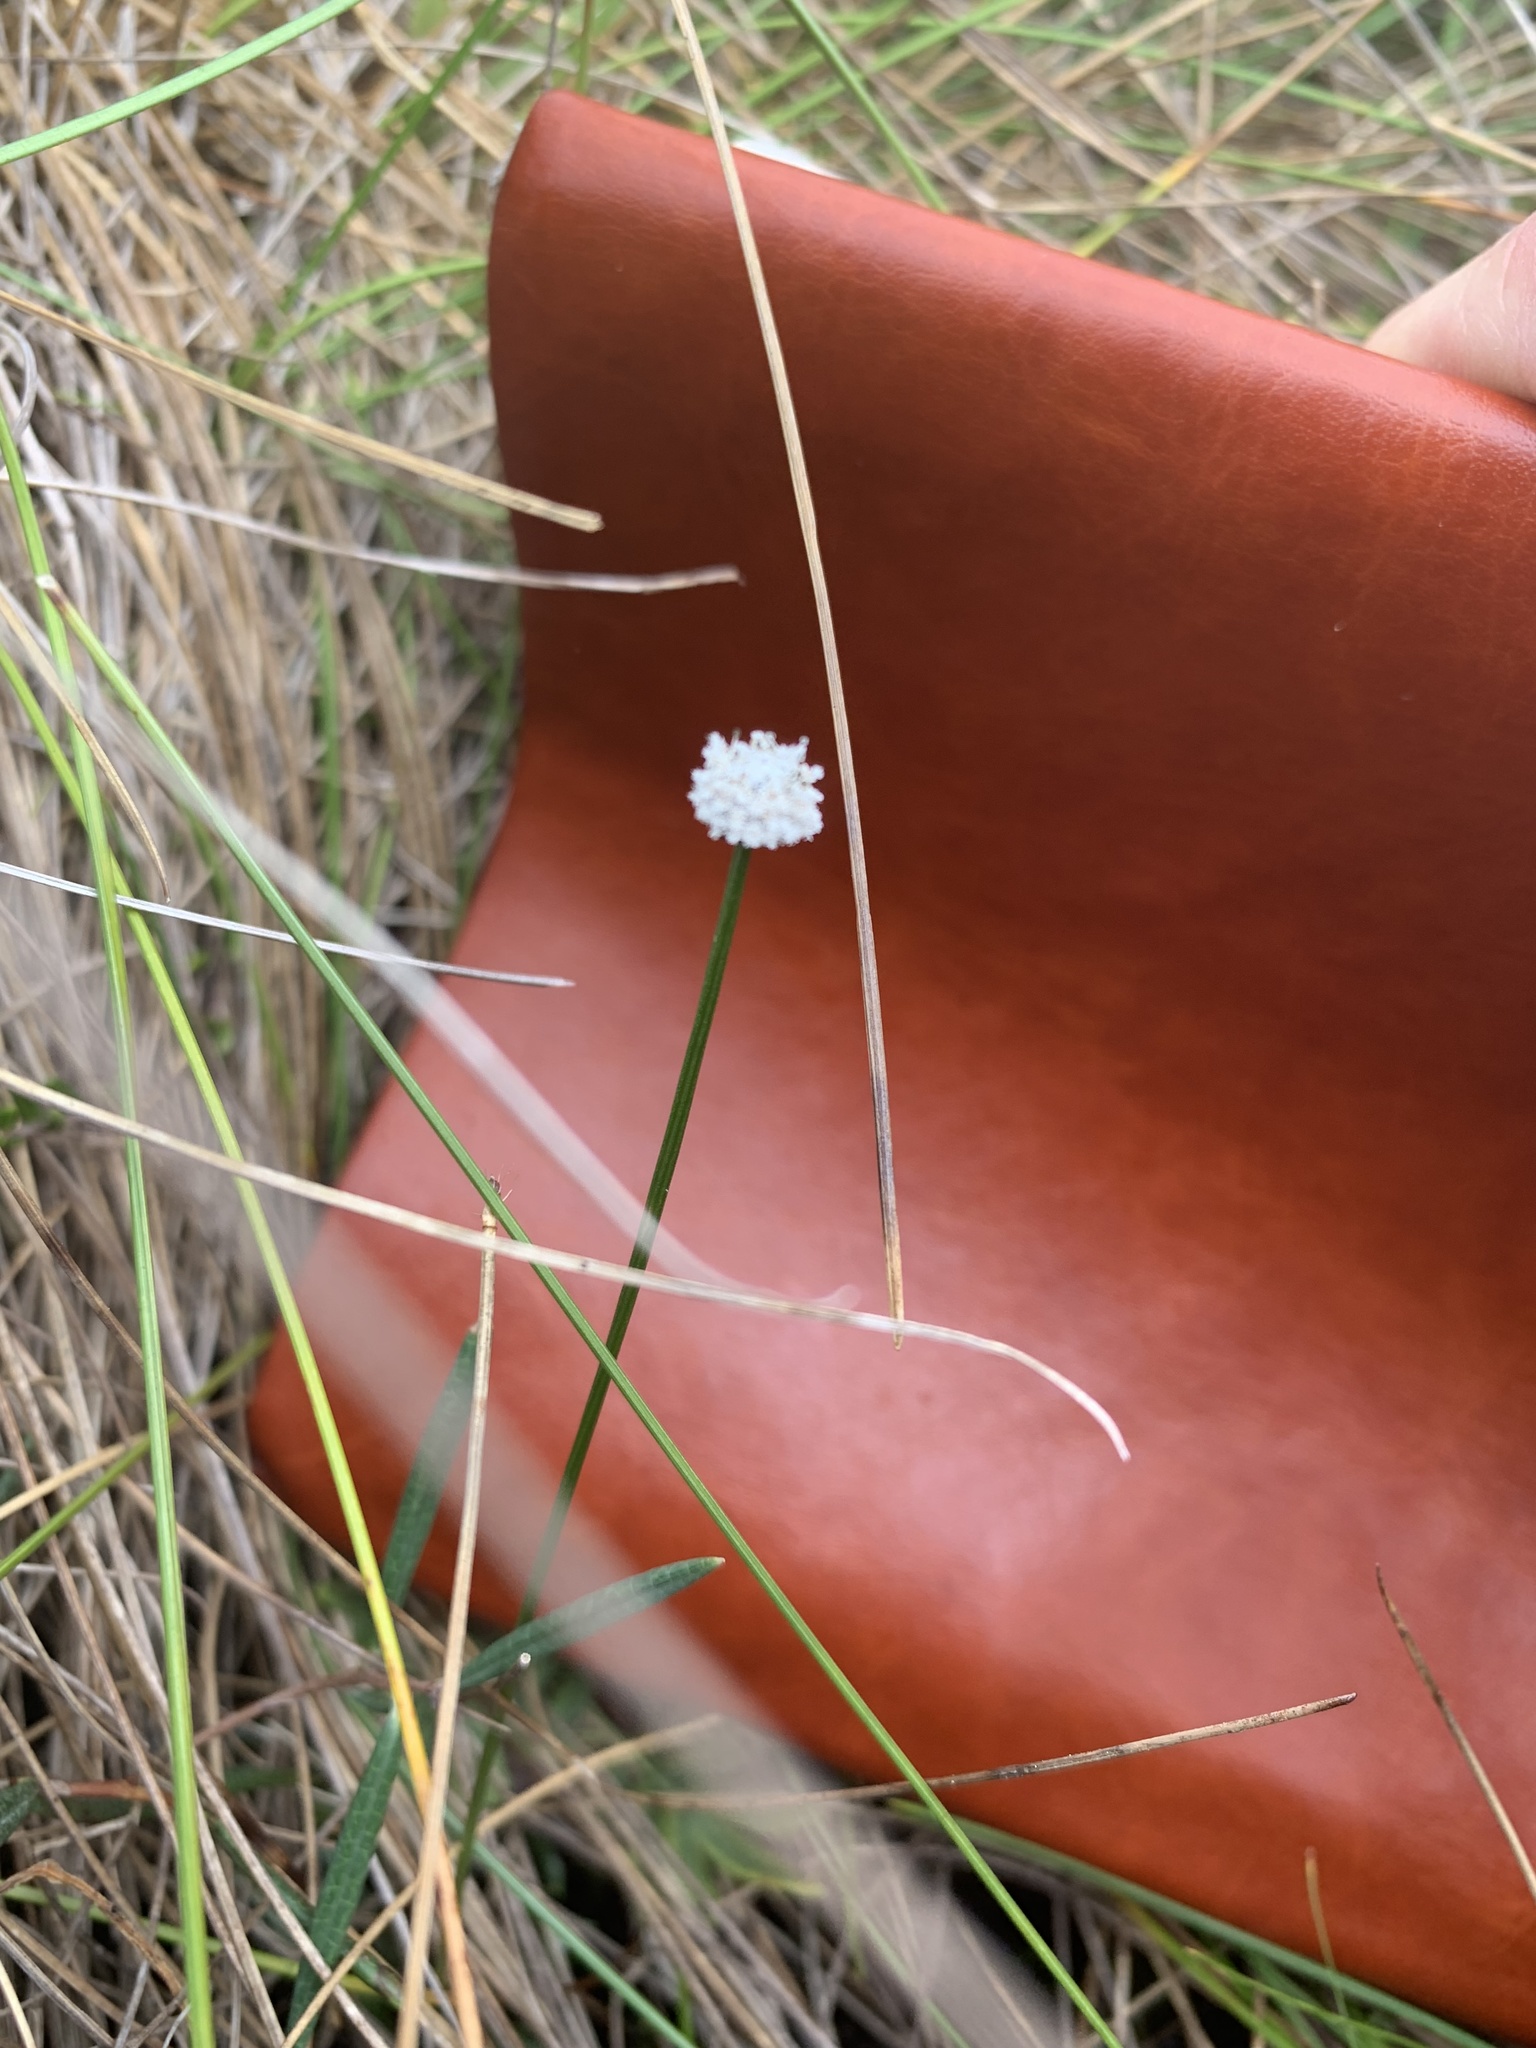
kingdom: Plantae
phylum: Tracheophyta
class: Liliopsida
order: Poales
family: Eriocaulaceae
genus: Eriocaulon
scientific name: Eriocaulon aquaticum
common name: Pipewort
